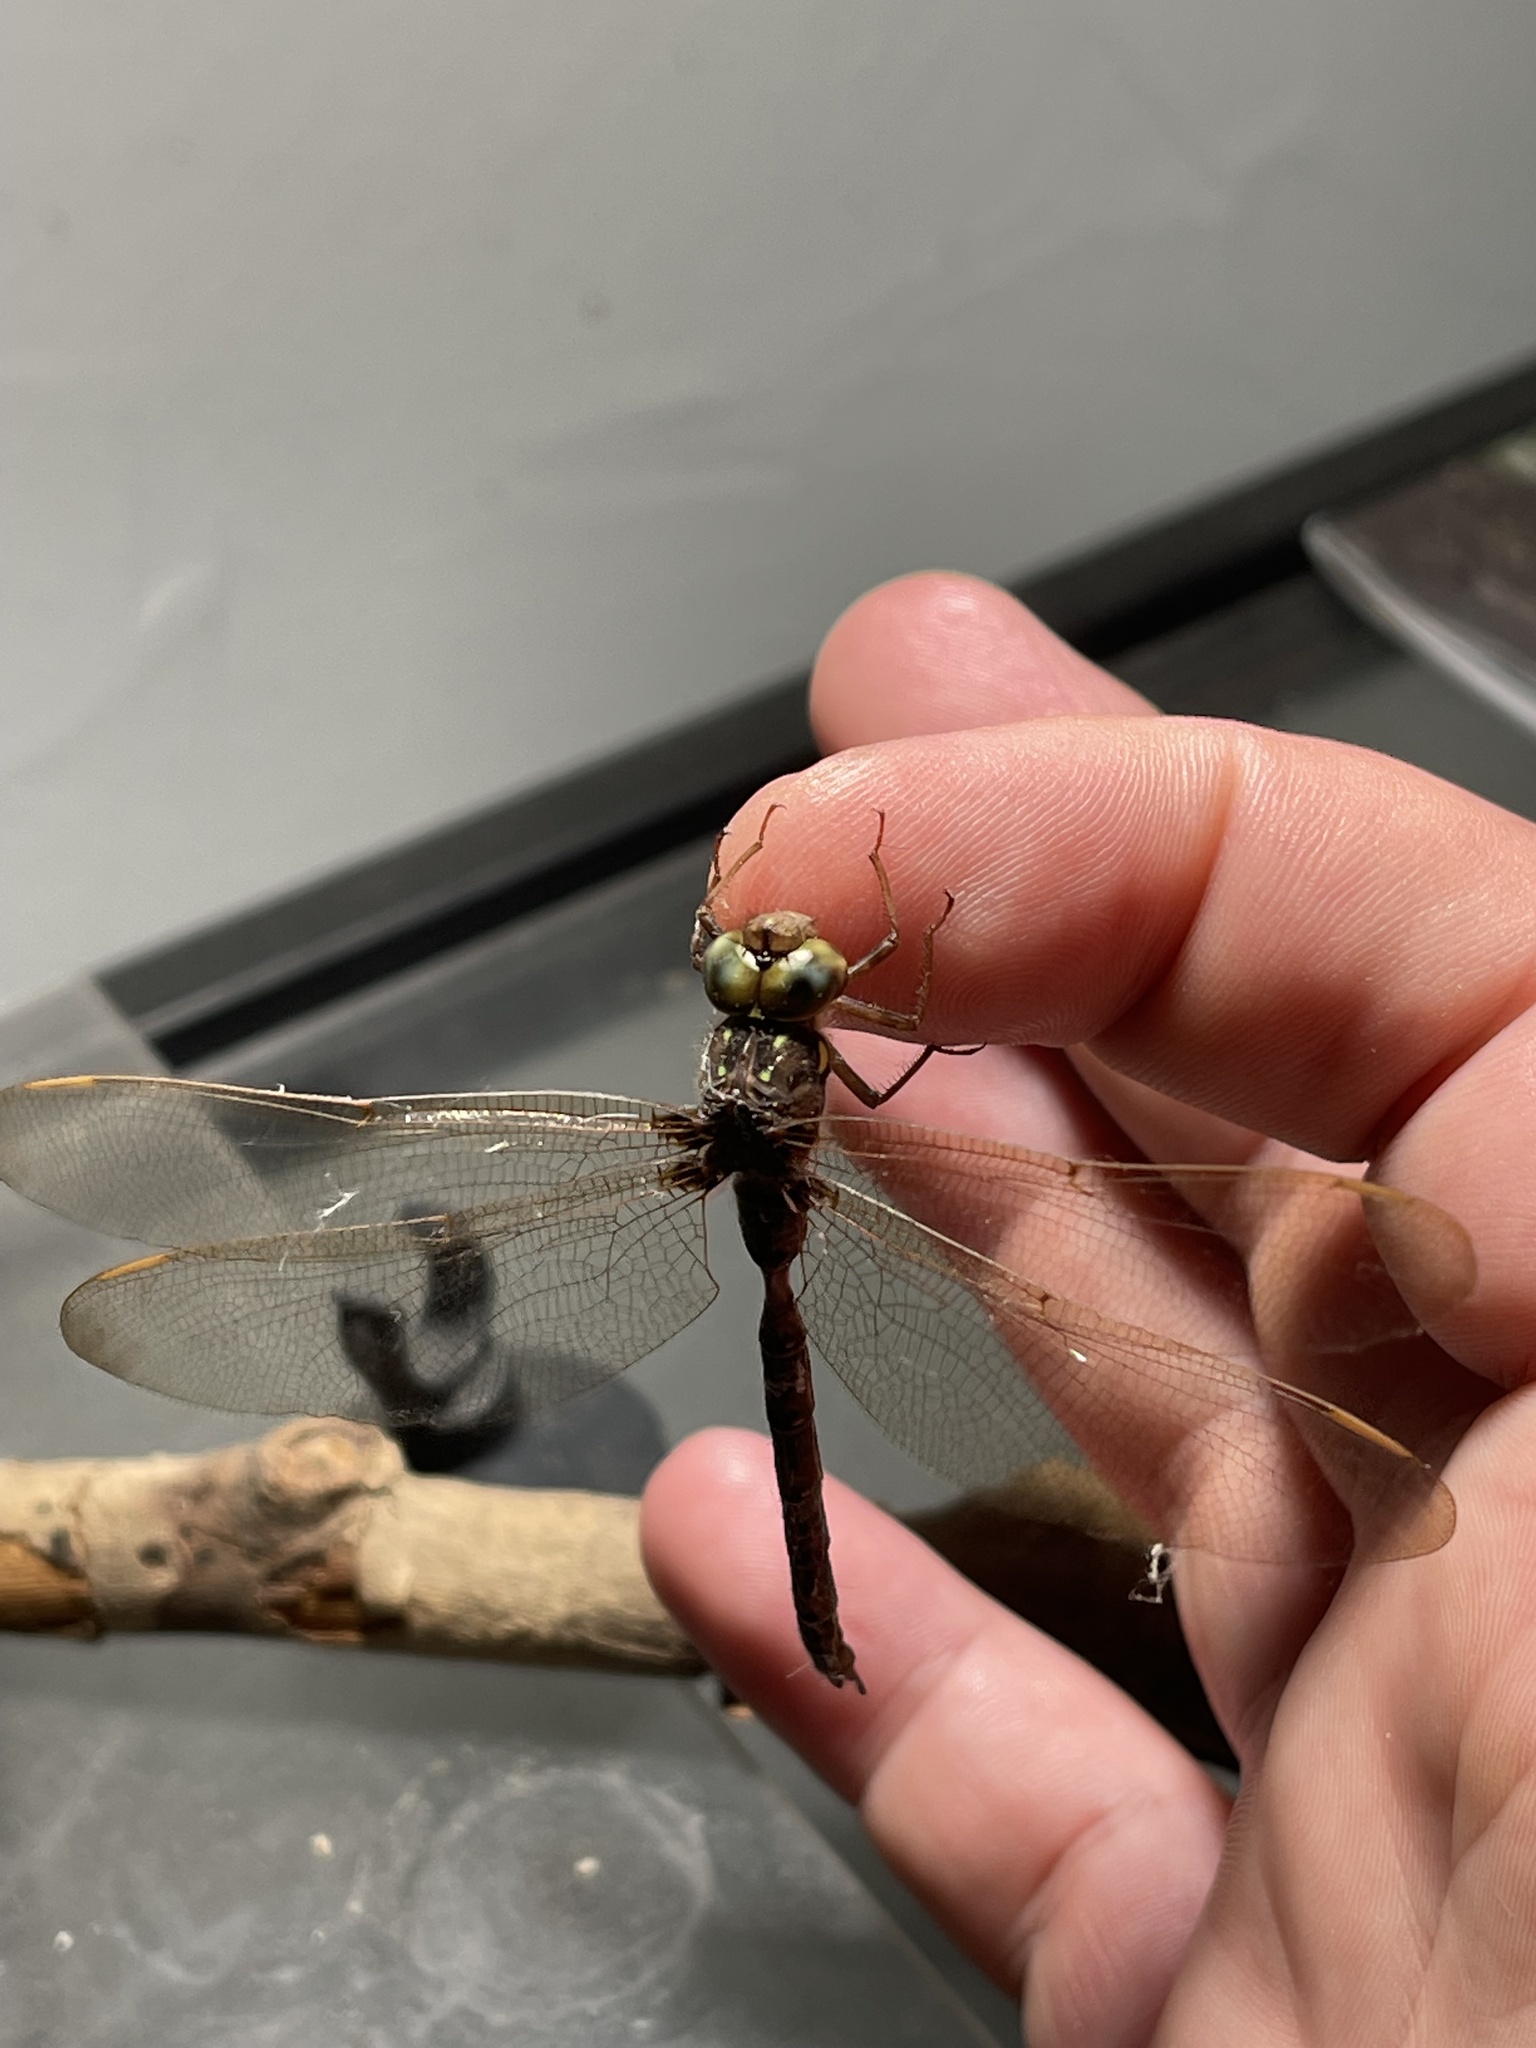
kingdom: Animalia
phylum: Arthropoda
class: Insecta
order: Odonata
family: Aeshnidae
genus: Boyeria
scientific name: Boyeria vinosa
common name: Fawn darner
